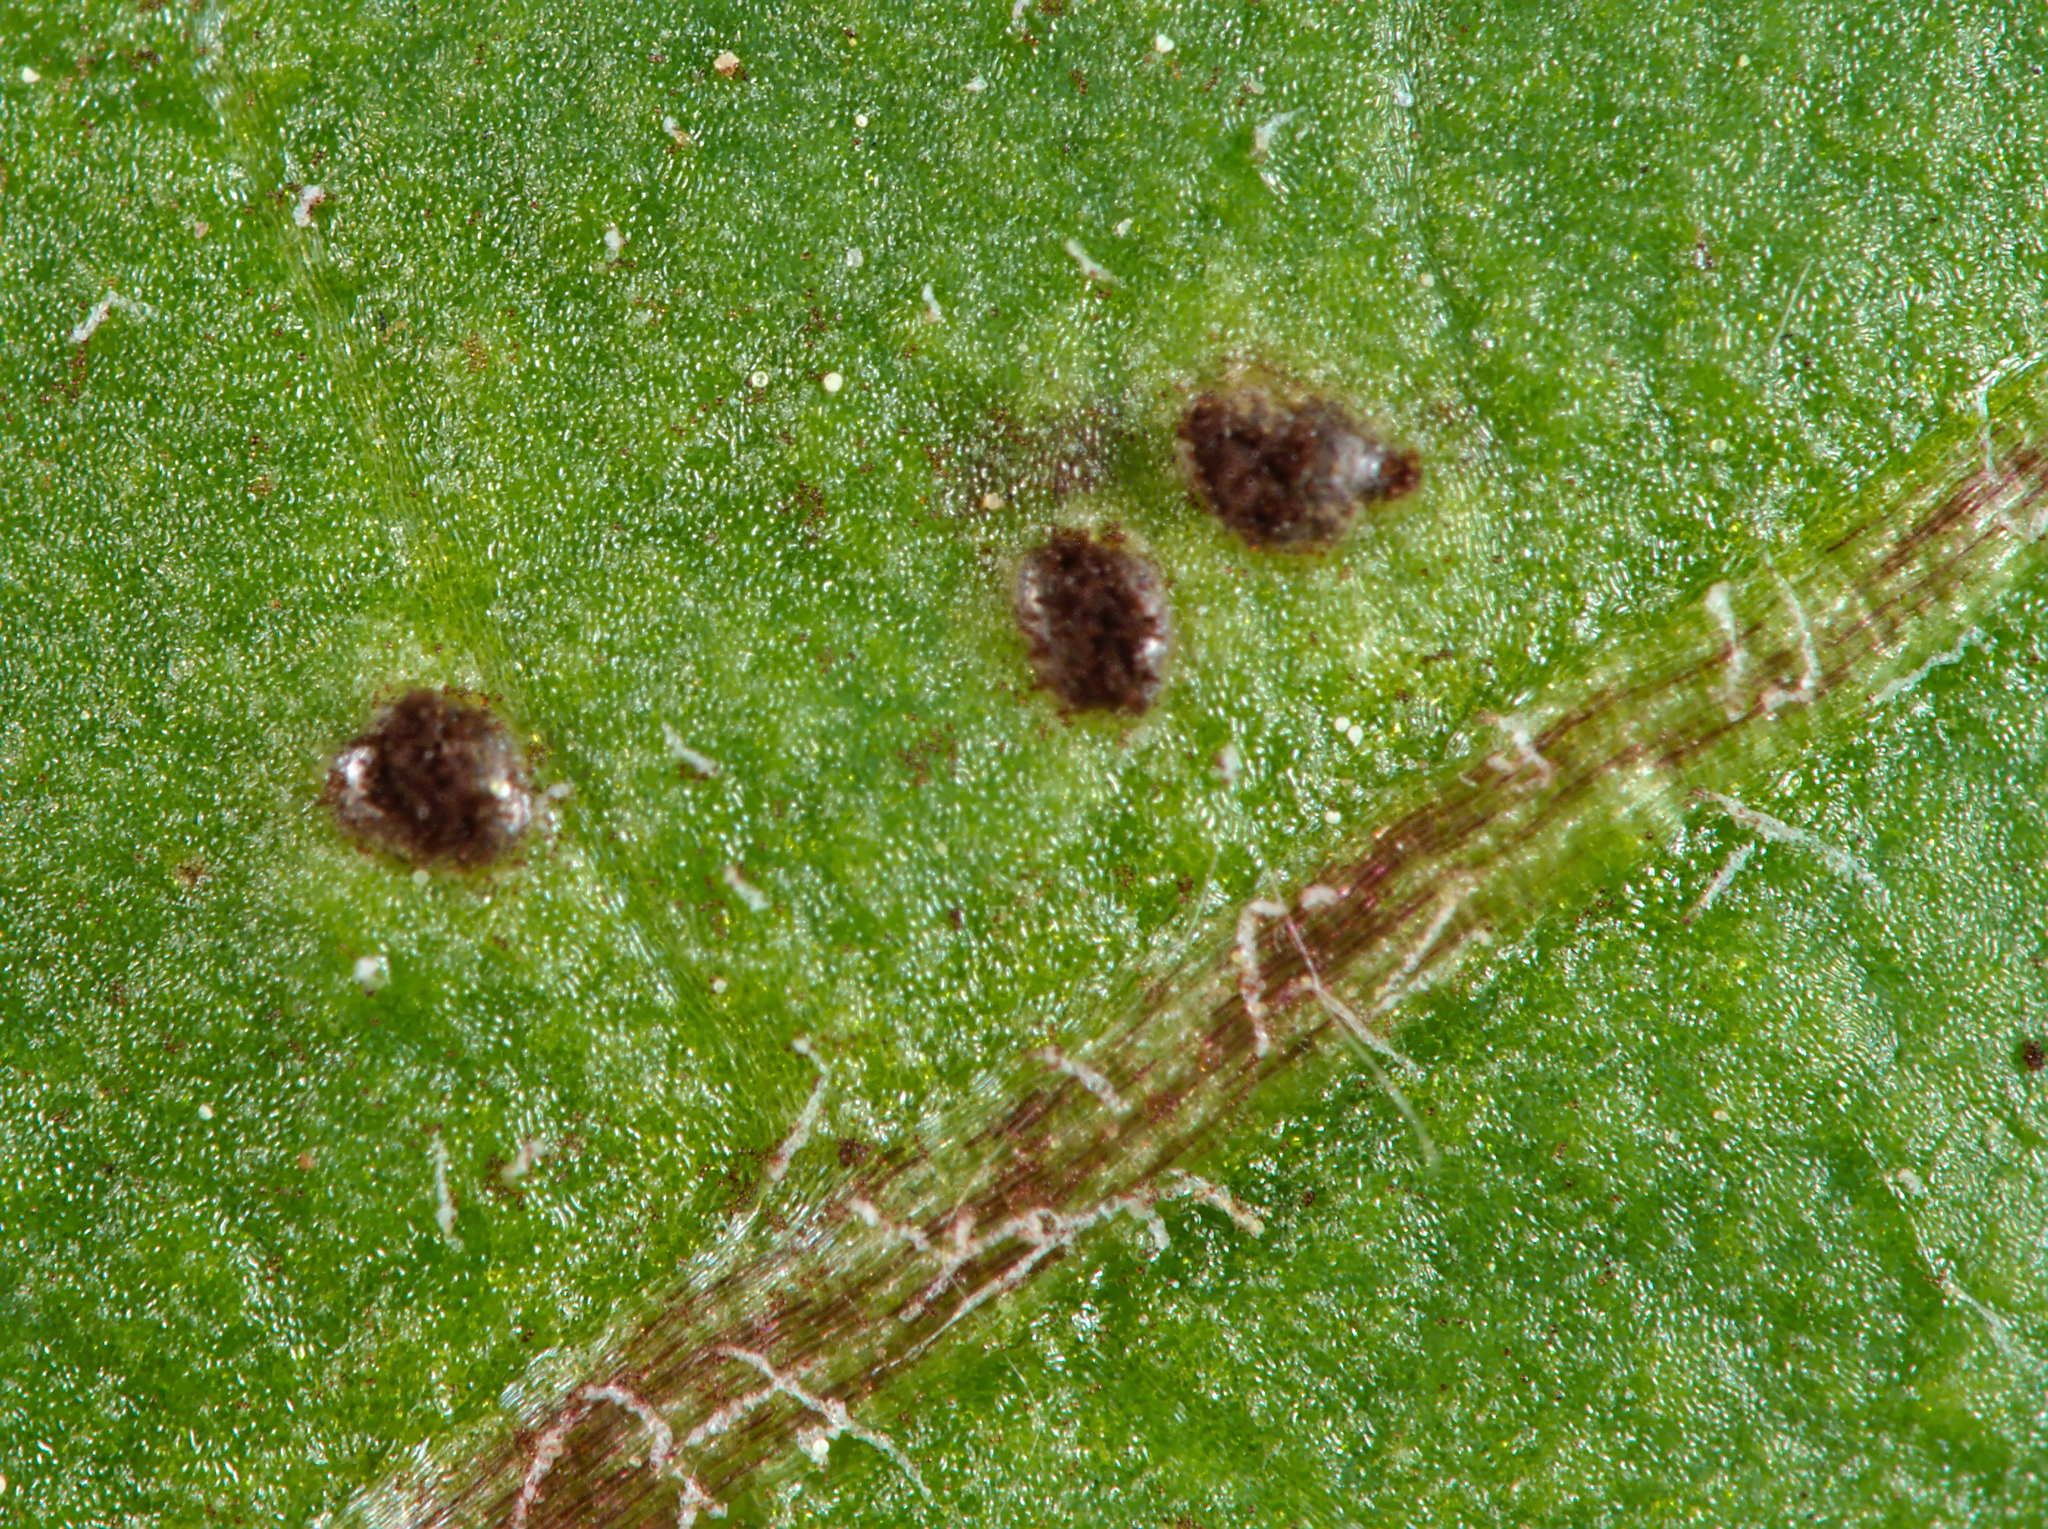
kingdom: Fungi
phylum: Basidiomycota
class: Pucciniomycetes
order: Pucciniales
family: Pucciniaceae
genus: Puccinia
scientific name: Puccinia
